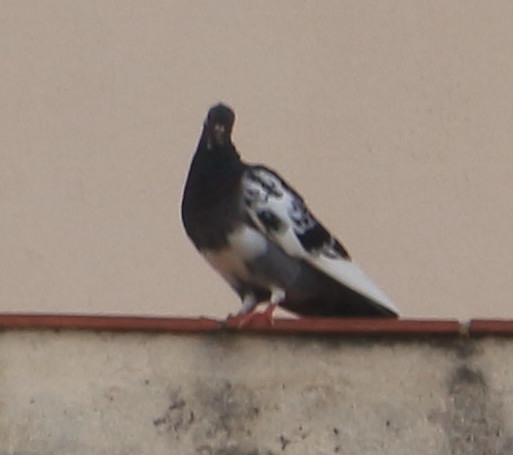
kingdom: Animalia
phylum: Chordata
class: Aves
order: Columbiformes
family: Columbidae
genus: Columba
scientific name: Columba livia
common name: Rock pigeon
